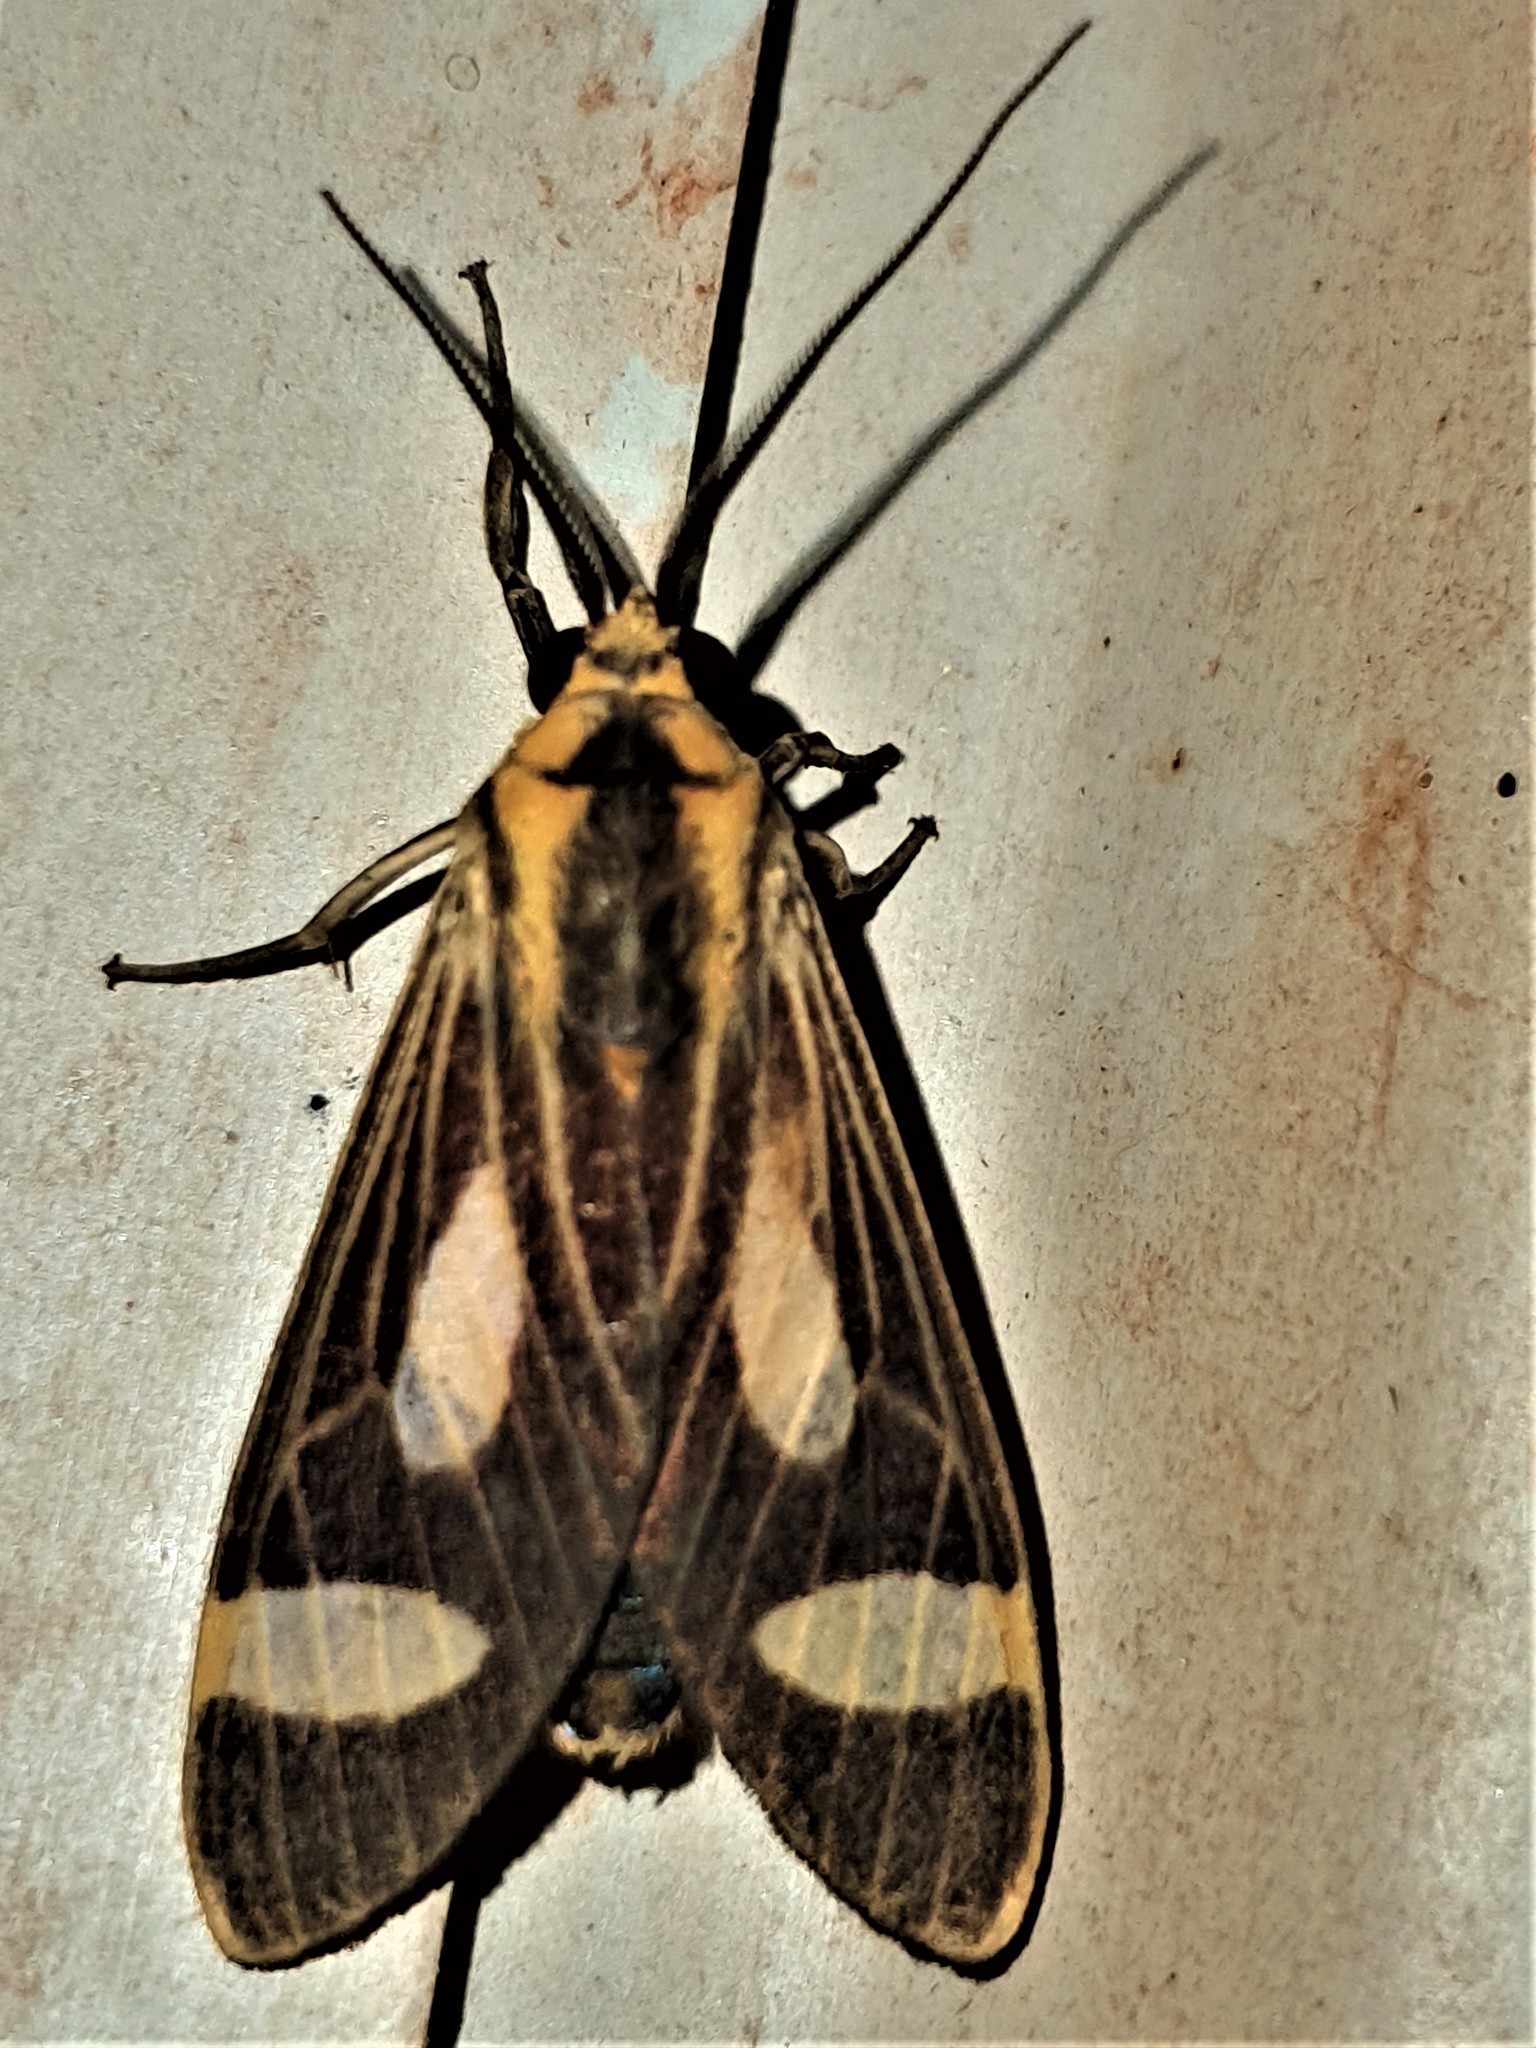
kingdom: Animalia
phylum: Arthropoda
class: Insecta
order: Lepidoptera
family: Erebidae
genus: Apiconoma
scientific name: Apiconoma opposita
